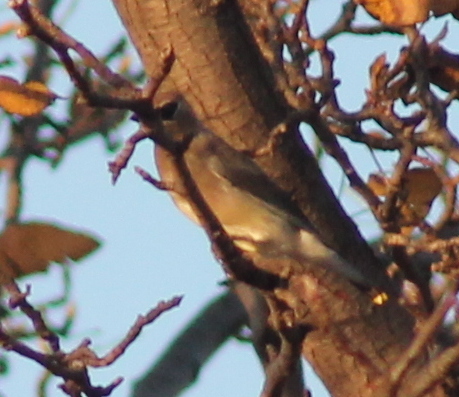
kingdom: Animalia
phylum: Chordata
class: Aves
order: Passeriformes
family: Bombycillidae
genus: Bombycilla
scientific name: Bombycilla cedrorum
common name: Cedar waxwing
